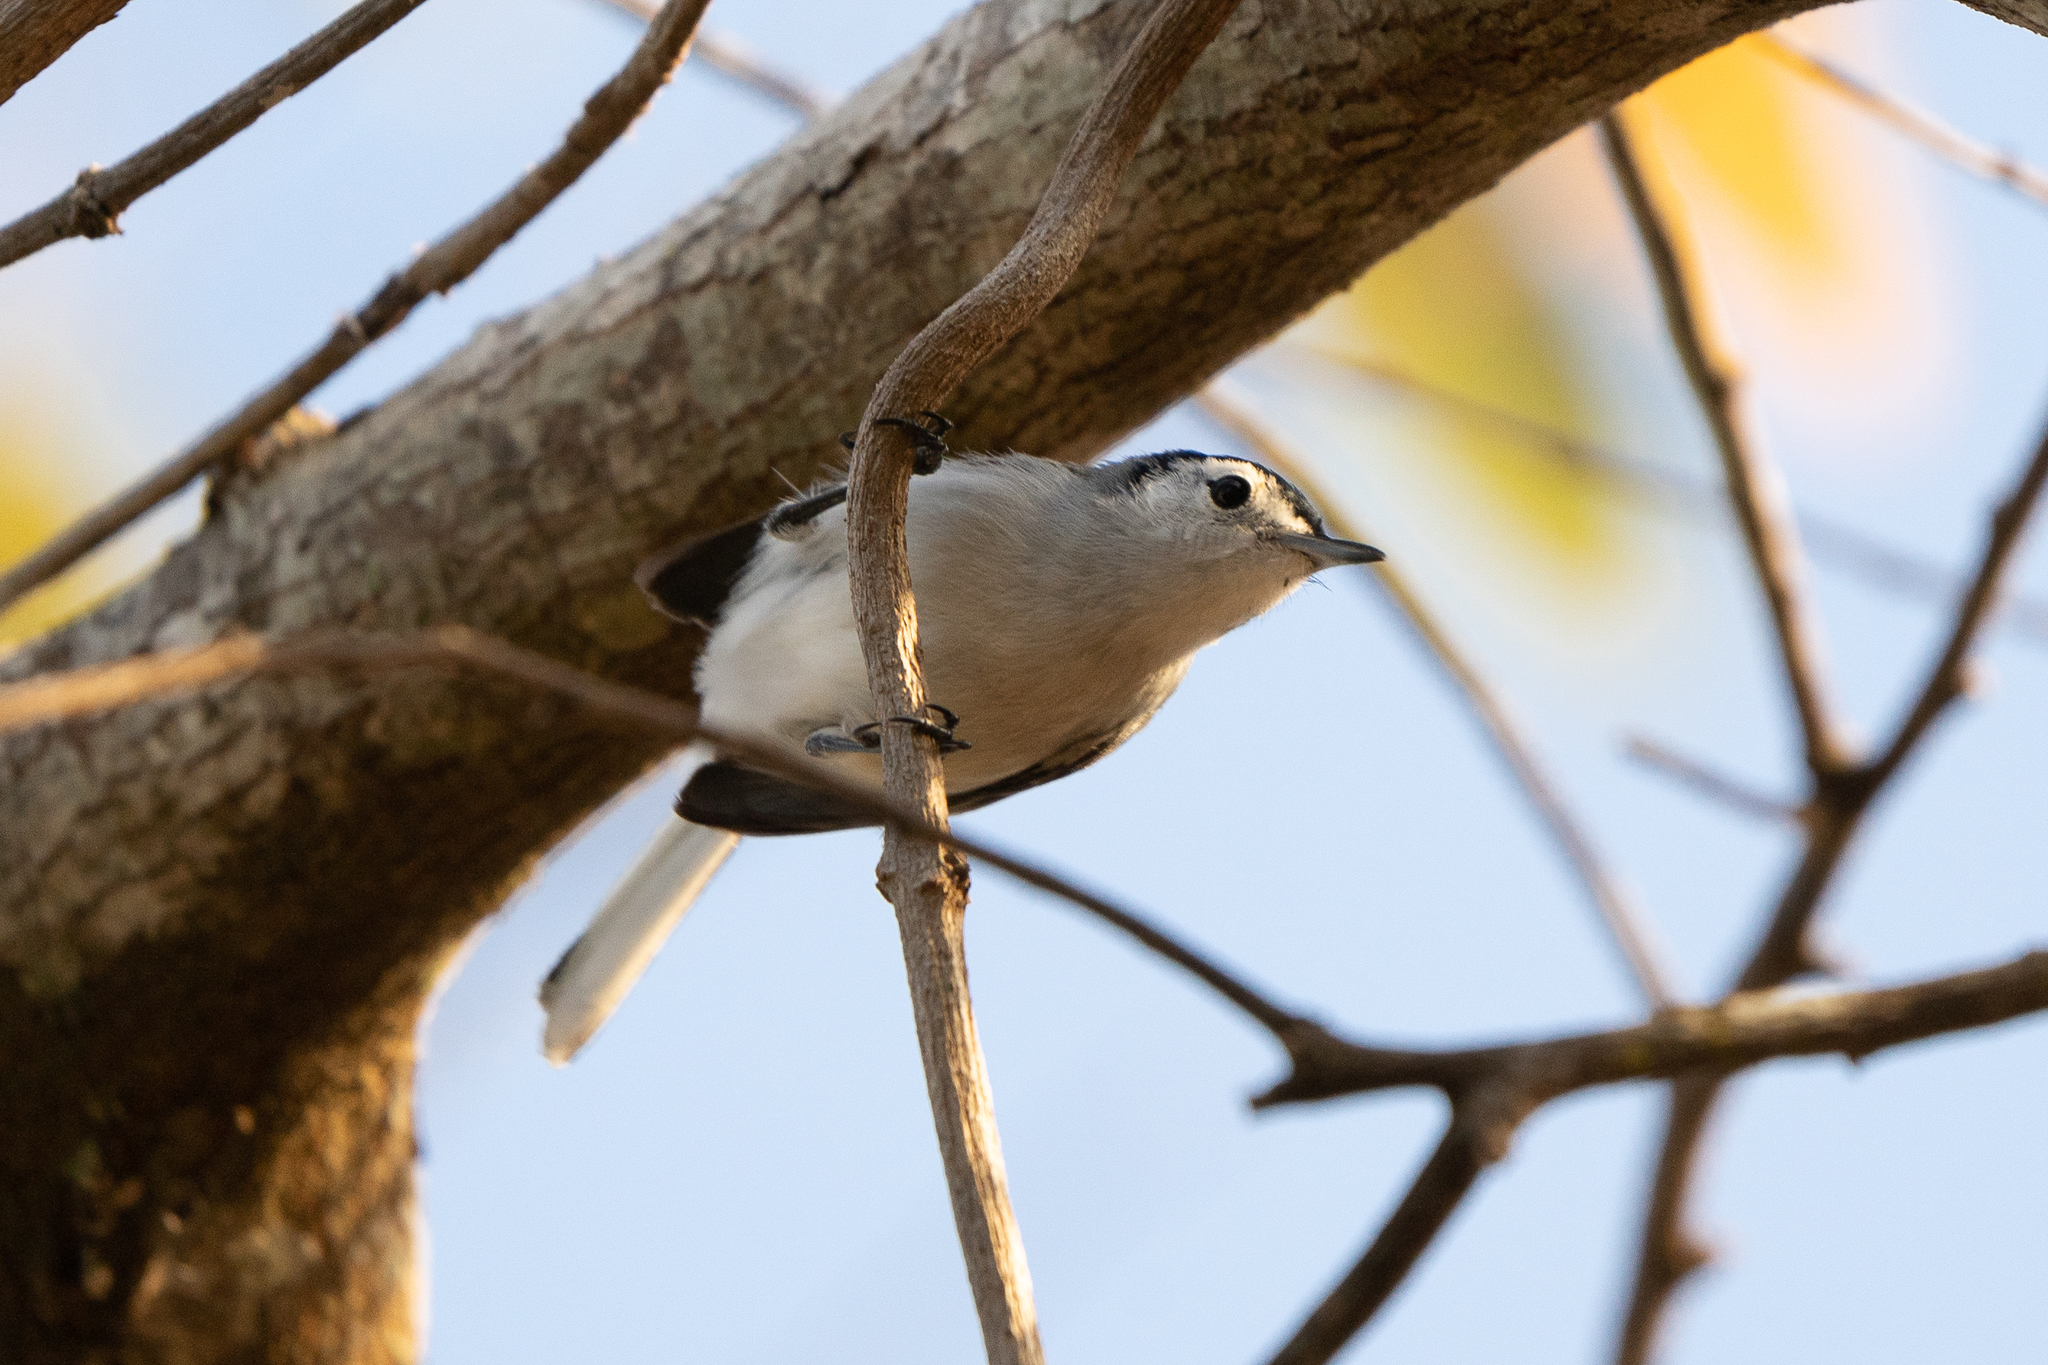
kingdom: Animalia
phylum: Chordata
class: Aves
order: Passeriformes
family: Polioptilidae
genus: Polioptila
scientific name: Polioptila plumbea
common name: Tropical gnatcatcher
